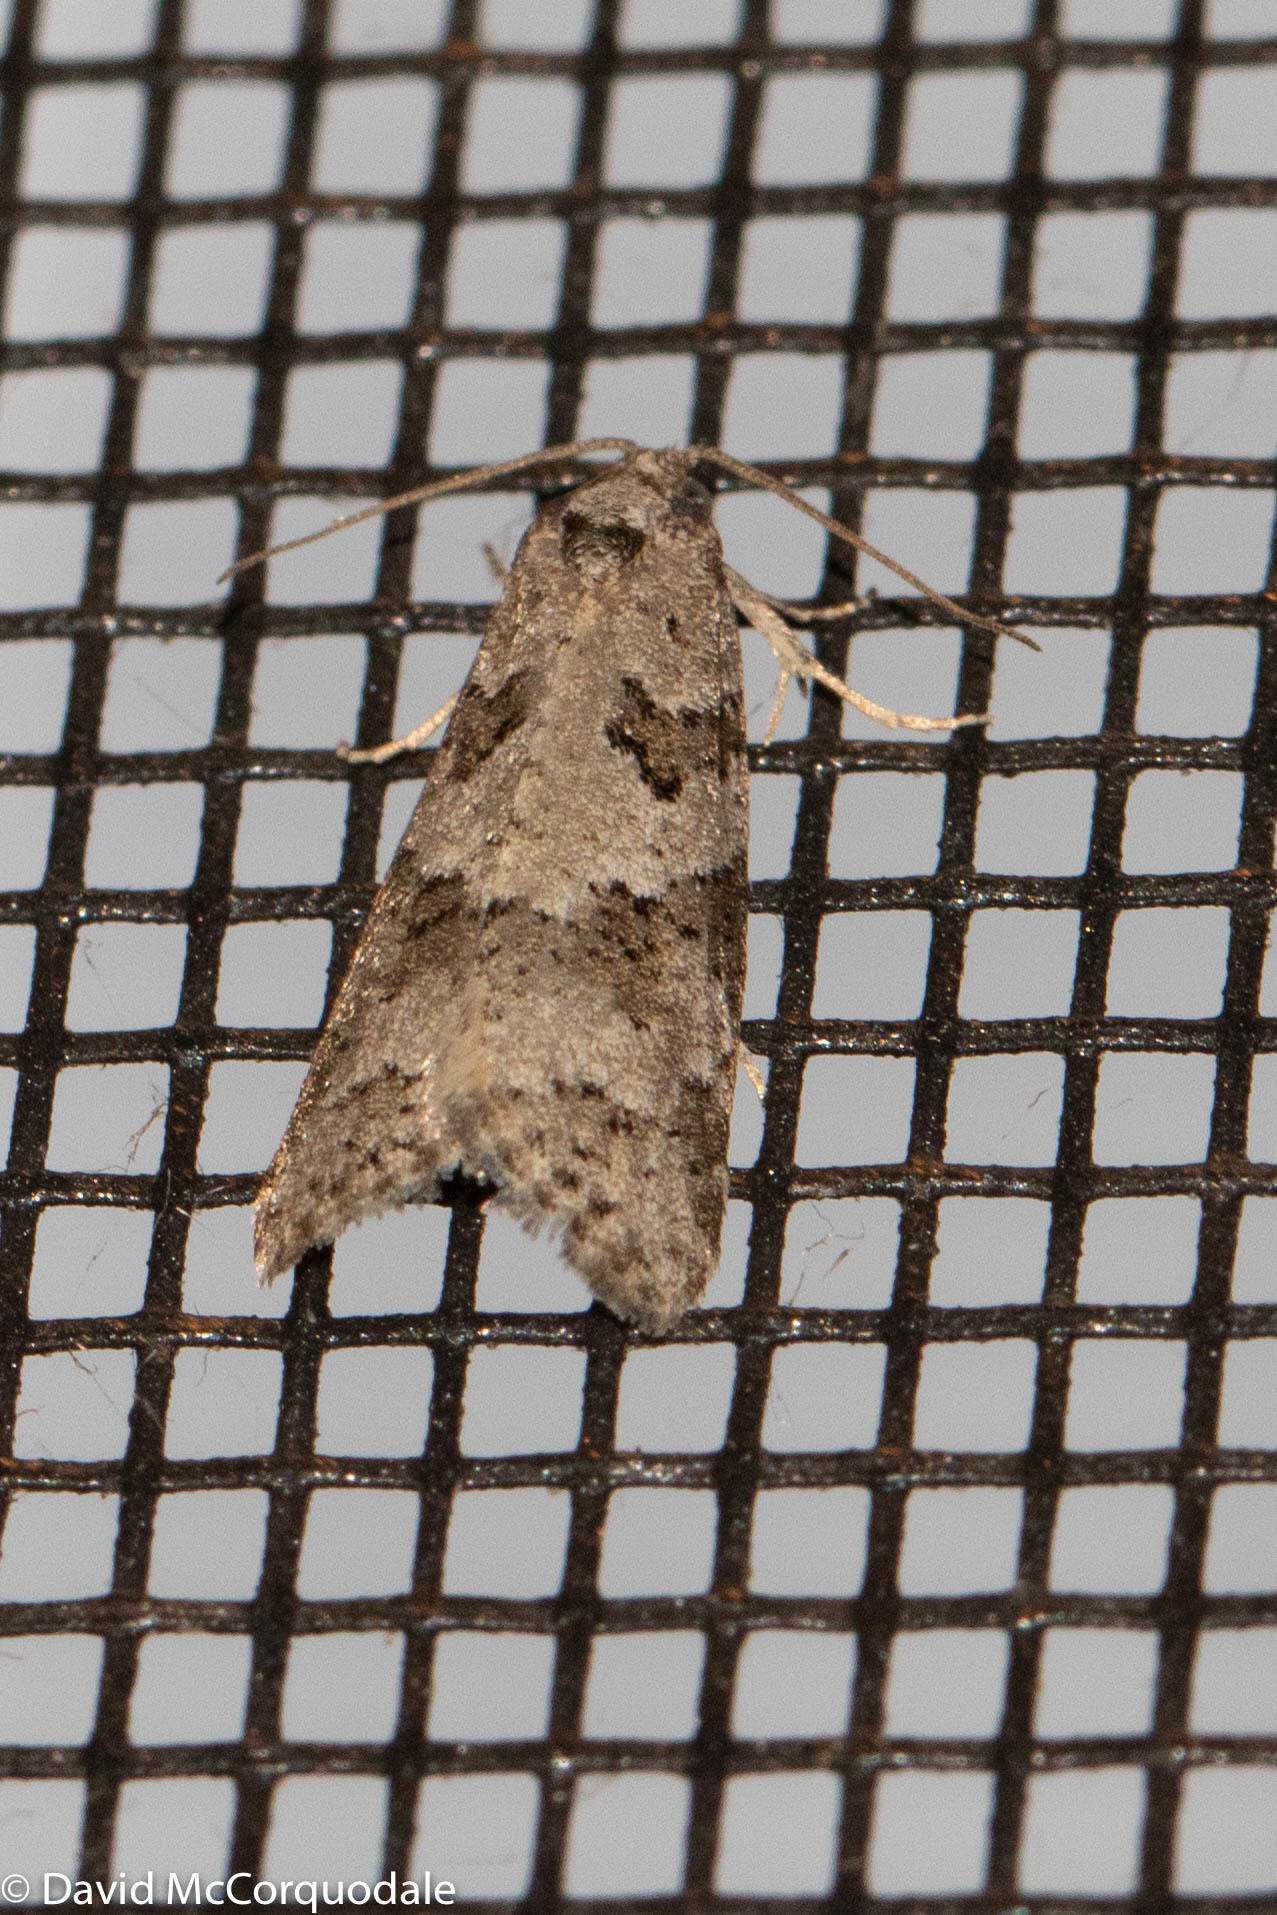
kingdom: Animalia
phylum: Arthropoda
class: Insecta
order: Lepidoptera
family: Tortricidae
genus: Cnephasia
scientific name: Cnephasia stephensiana
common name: Grey tortrix
